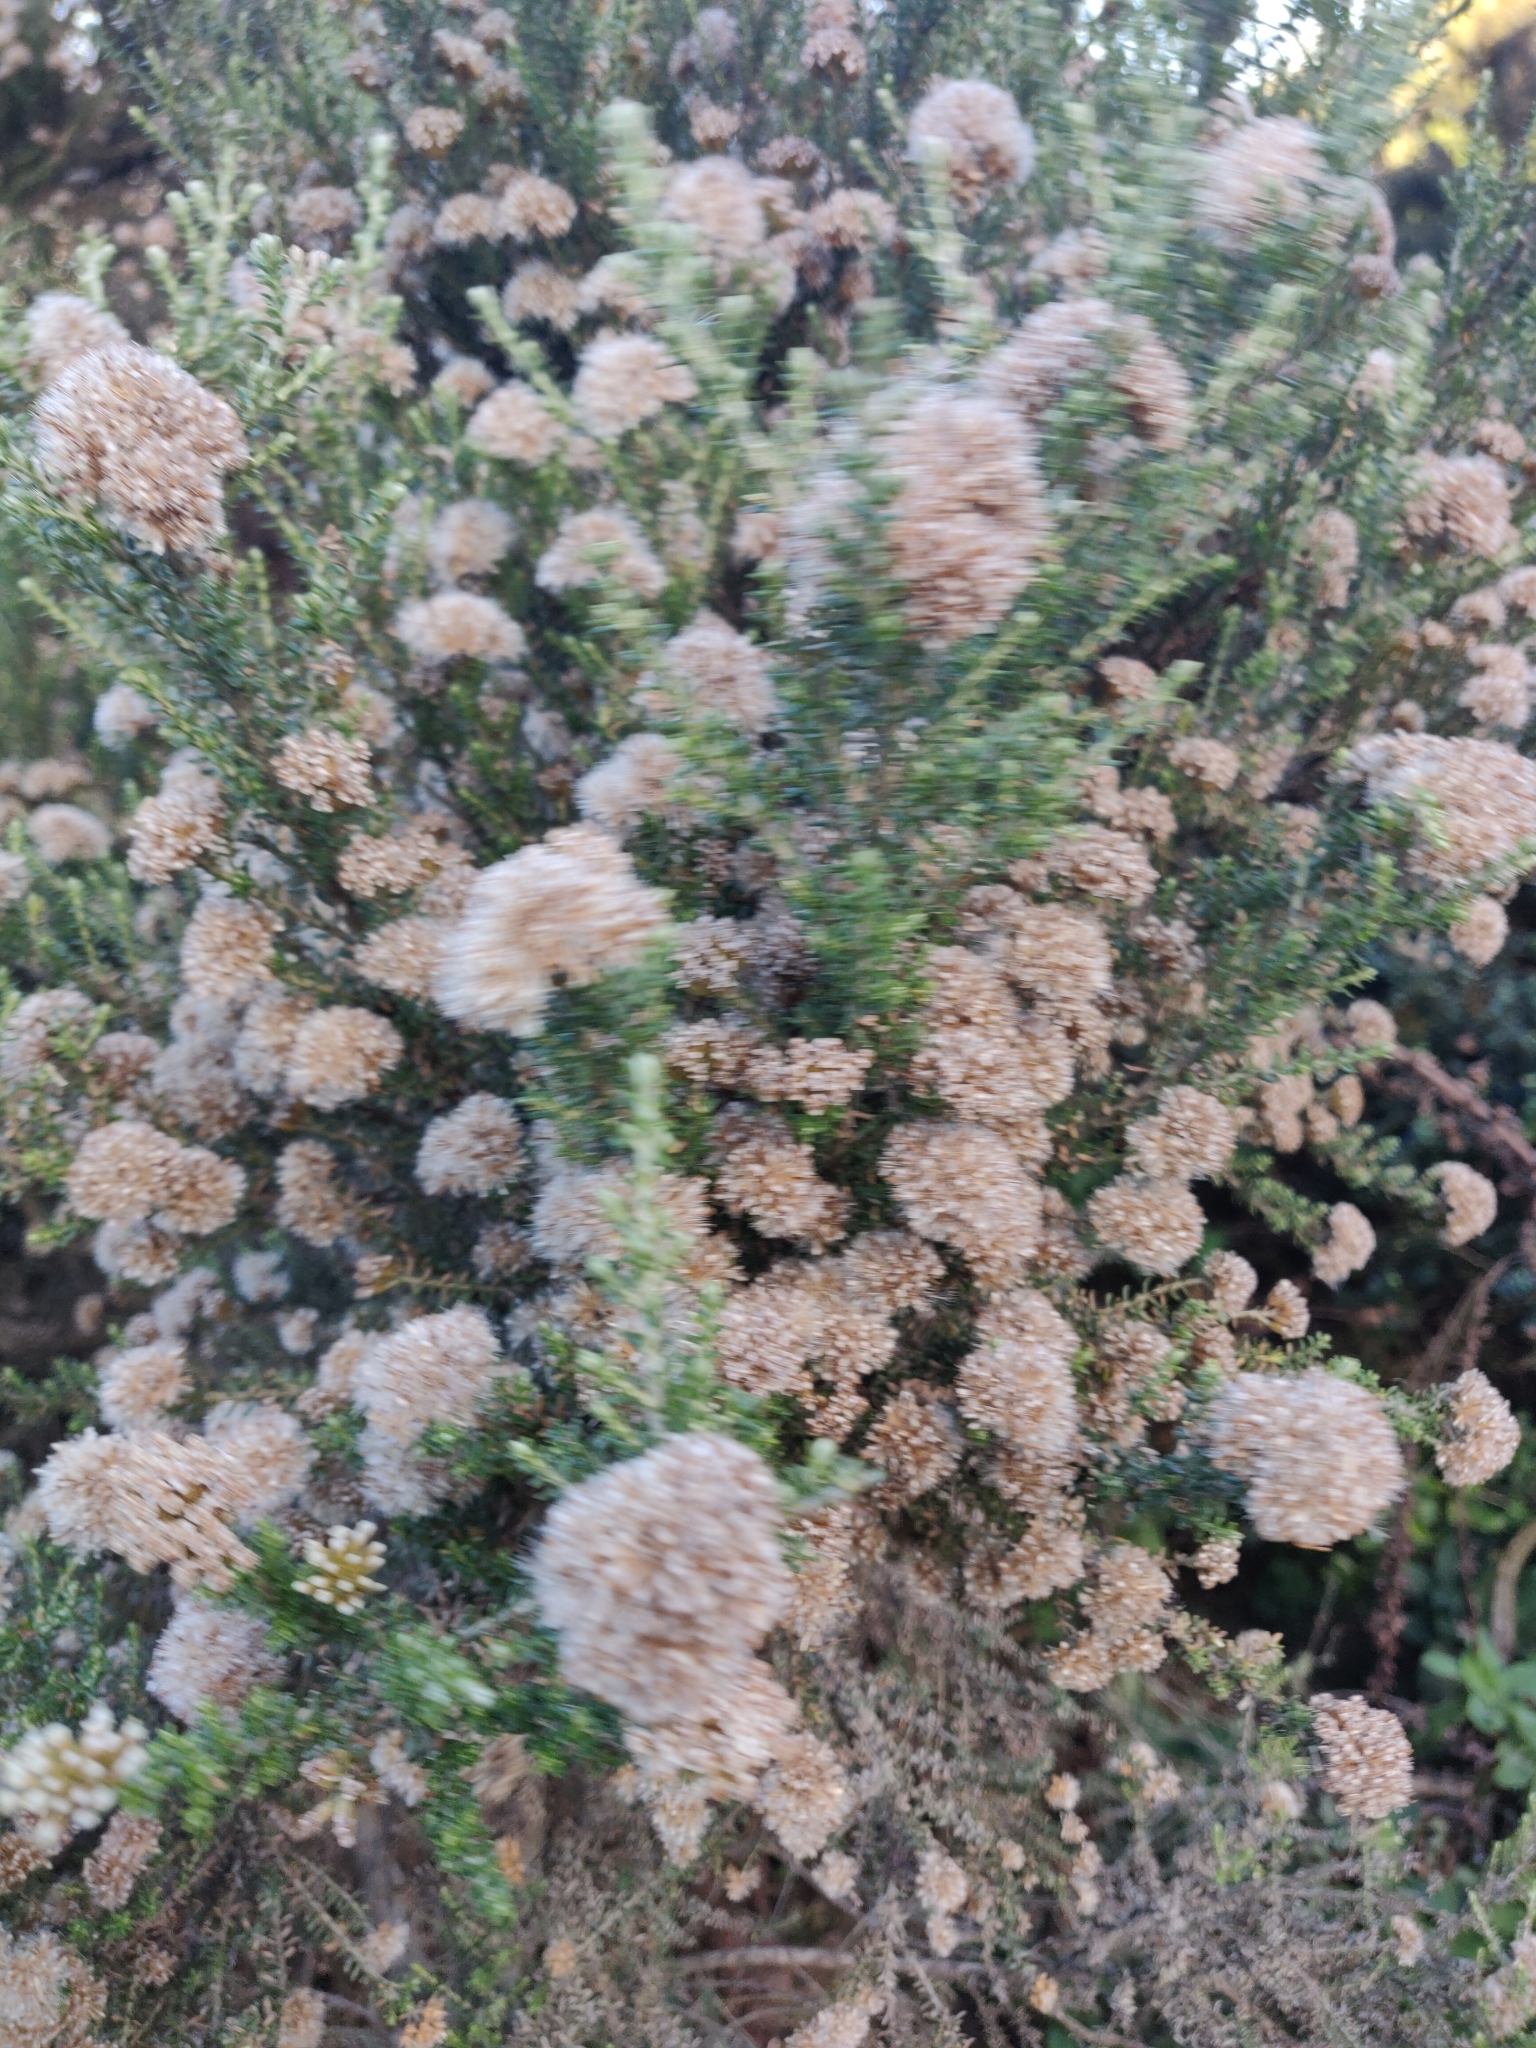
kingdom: Plantae
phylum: Tracheophyta
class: Magnoliopsida
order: Asterales
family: Asteraceae
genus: Ozothamnus
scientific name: Ozothamnus leptophyllus
